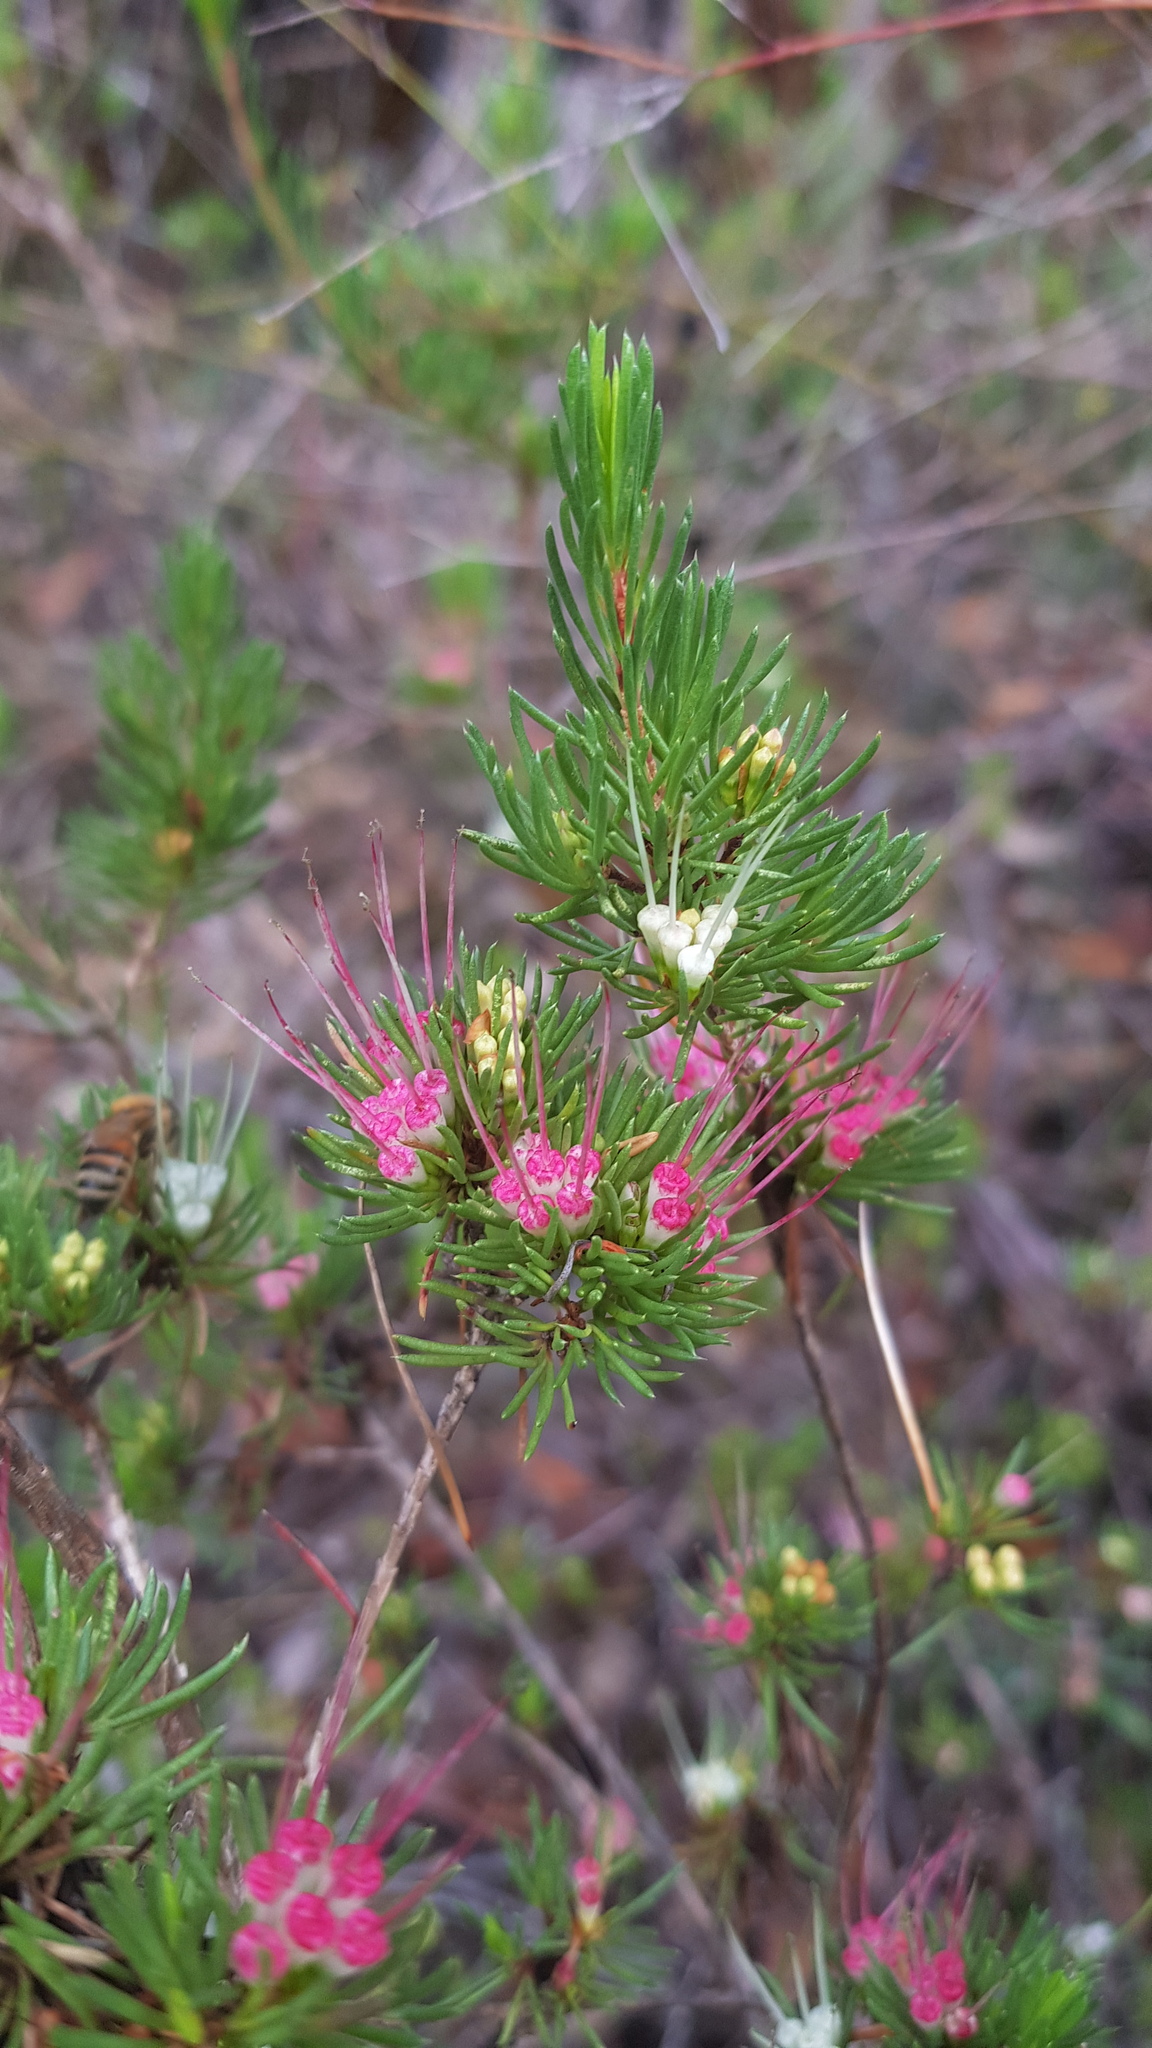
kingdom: Plantae
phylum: Tracheophyta
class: Magnoliopsida
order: Myrtales
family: Myrtaceae
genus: Darwinia
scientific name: Darwinia fascicularis
